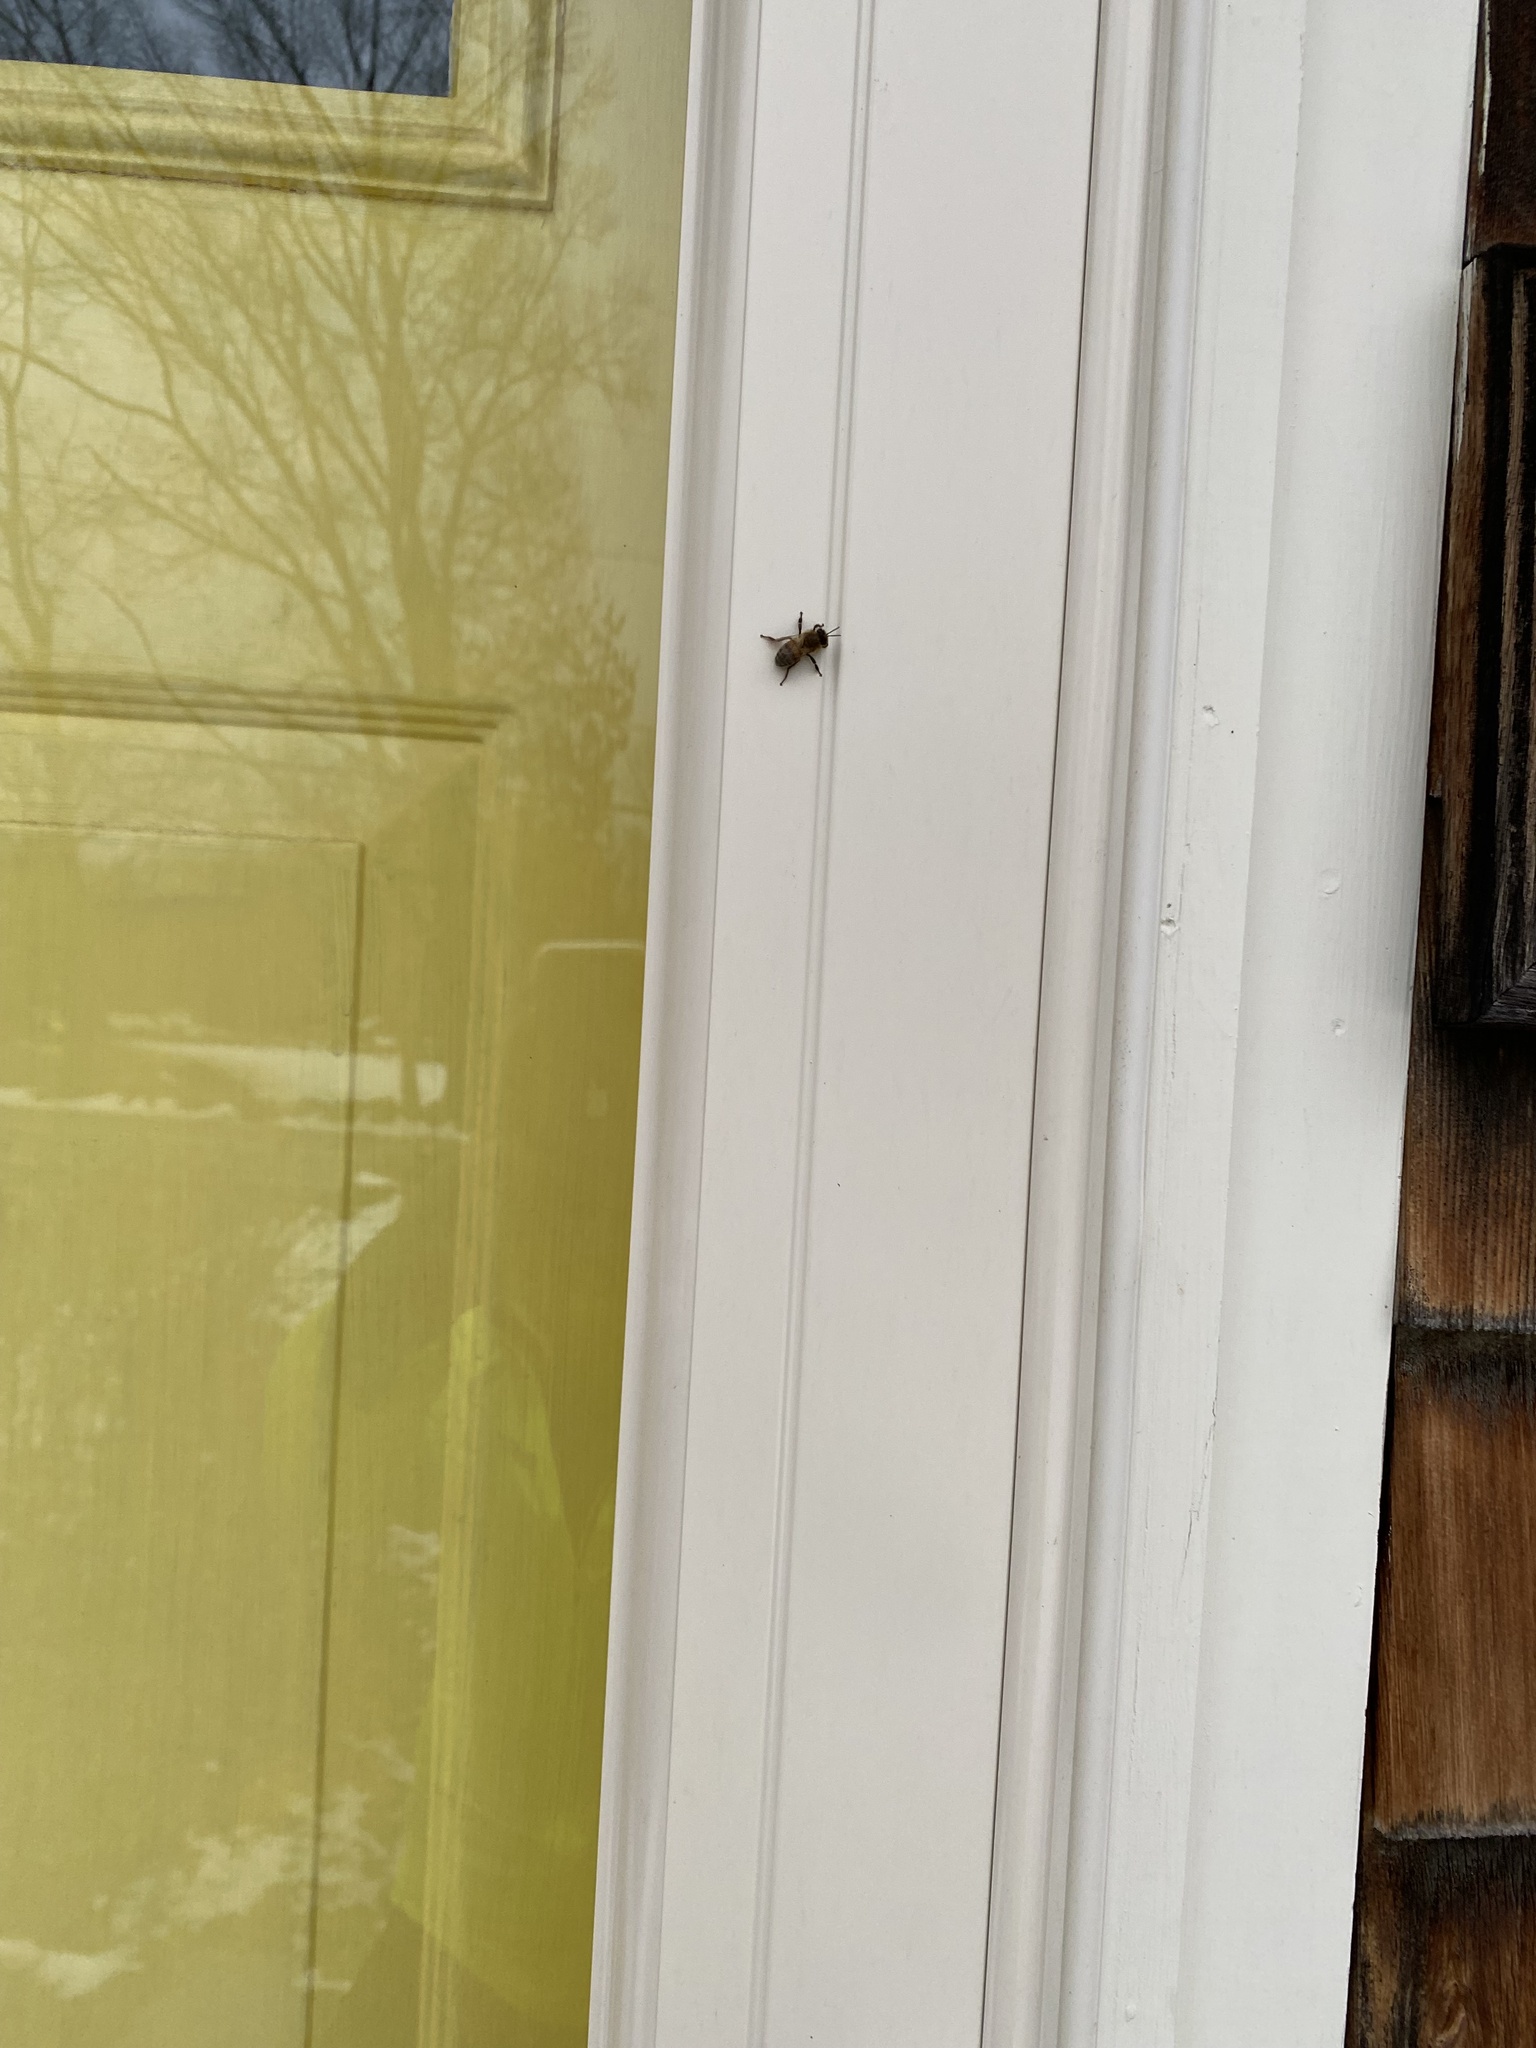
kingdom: Animalia
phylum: Arthropoda
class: Insecta
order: Hymenoptera
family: Apidae
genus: Apis
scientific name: Apis mellifera
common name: Honey bee
